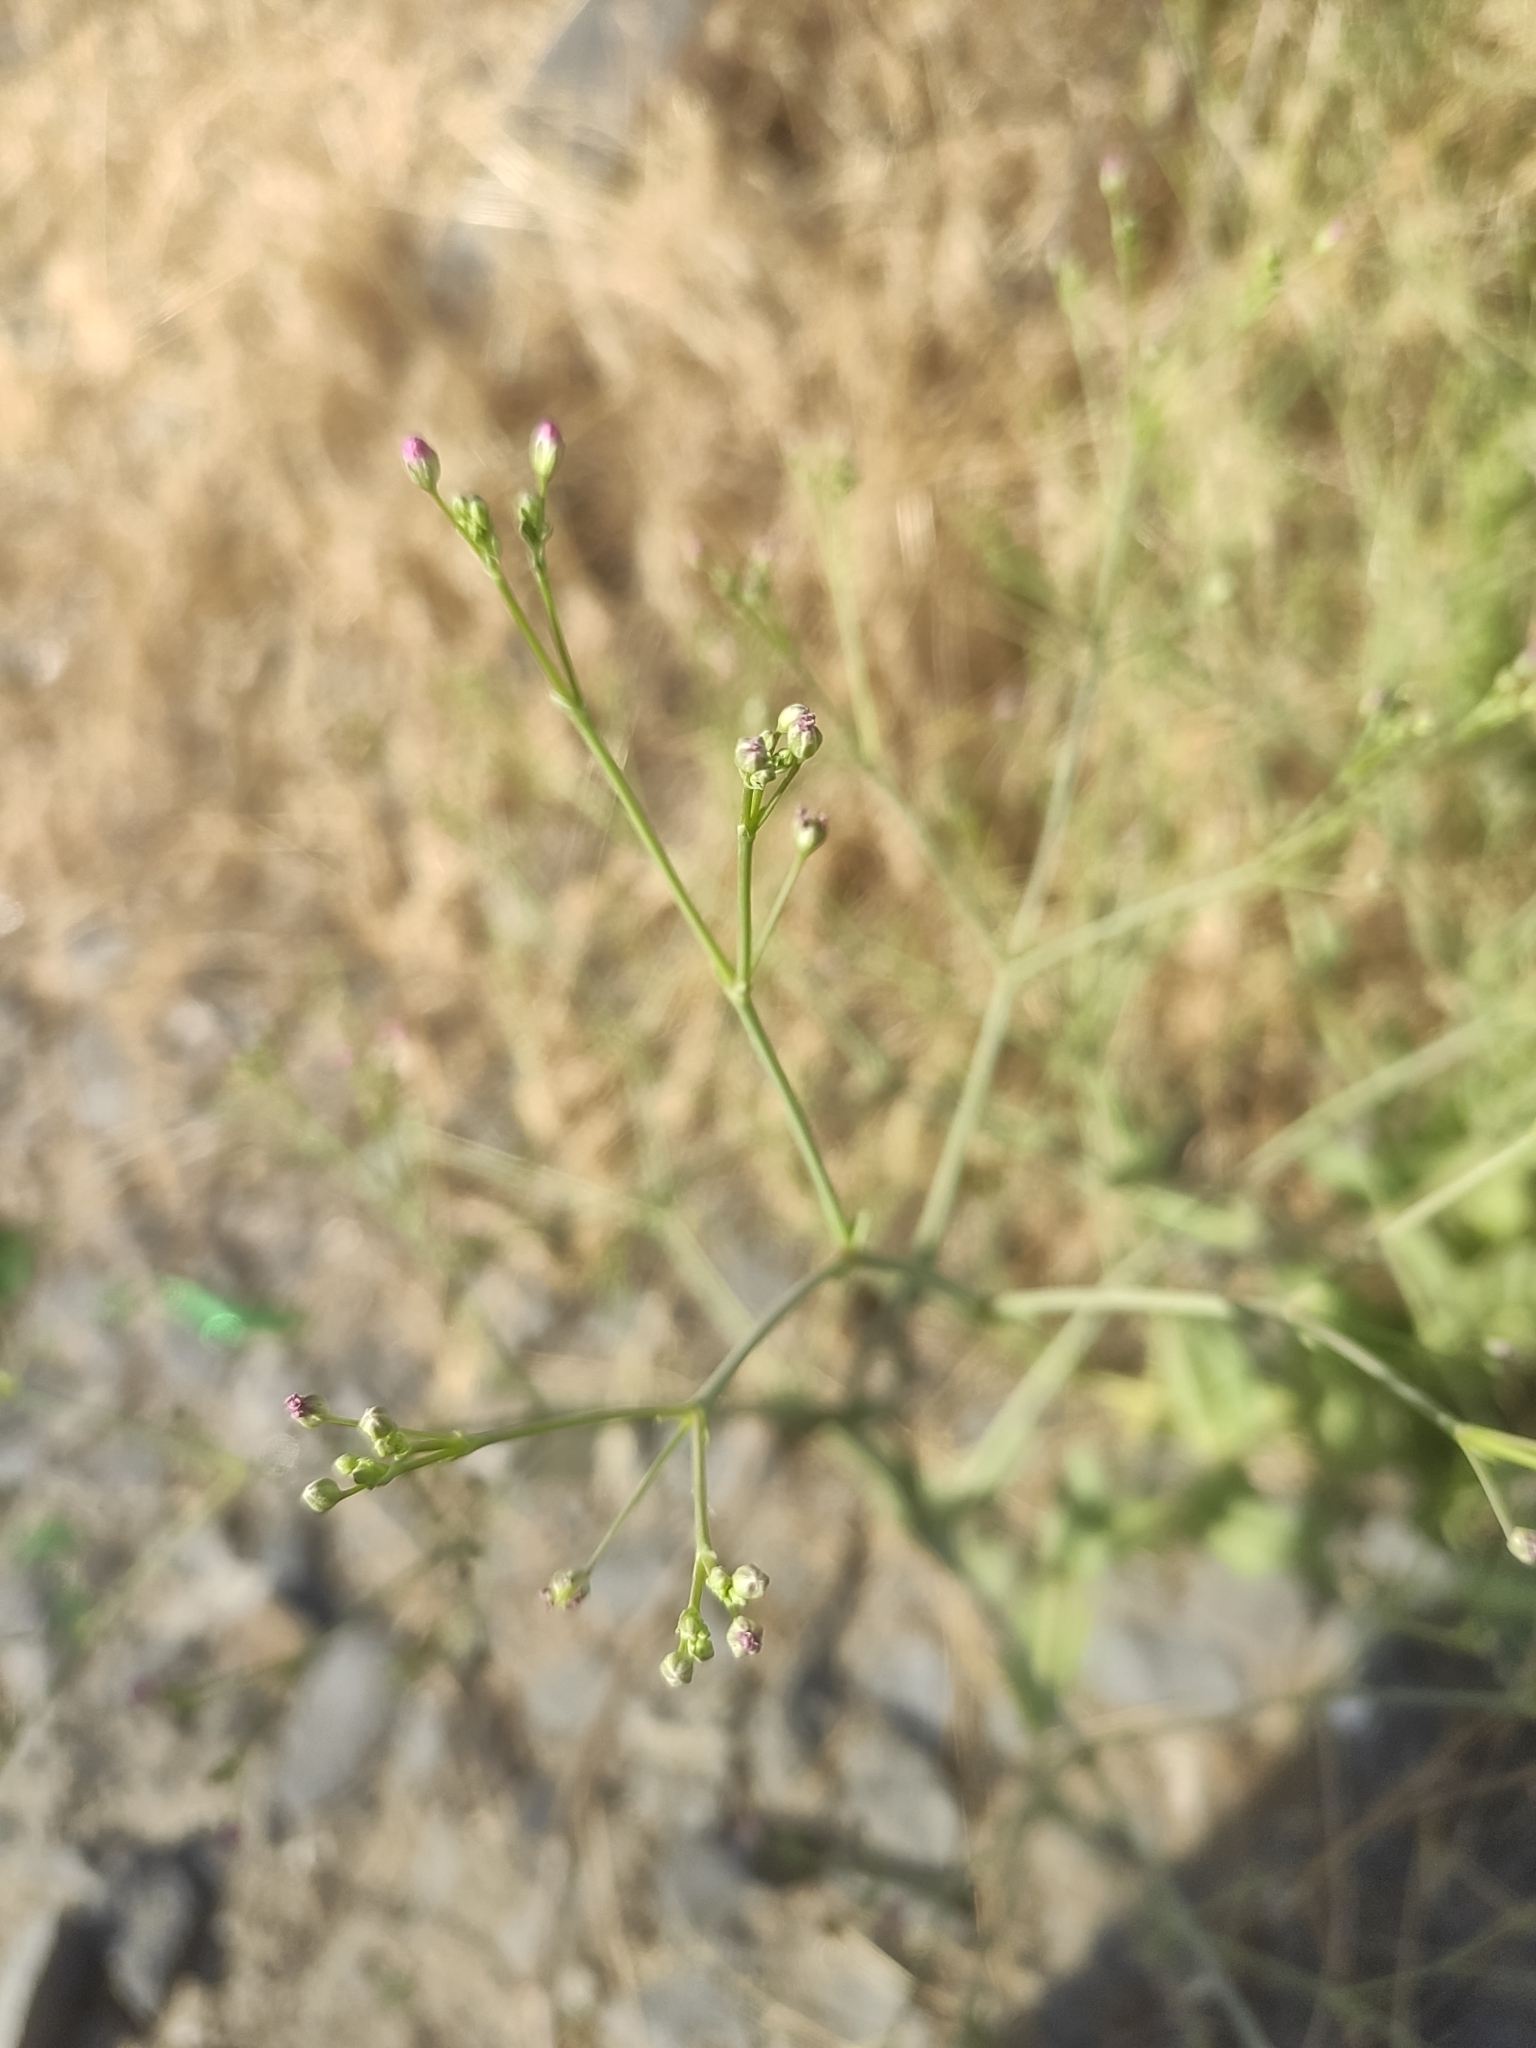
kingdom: Plantae
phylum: Tracheophyta
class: Magnoliopsida
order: Caryophyllales
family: Caryophyllaceae
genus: Gypsophila
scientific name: Gypsophila perfoliata
